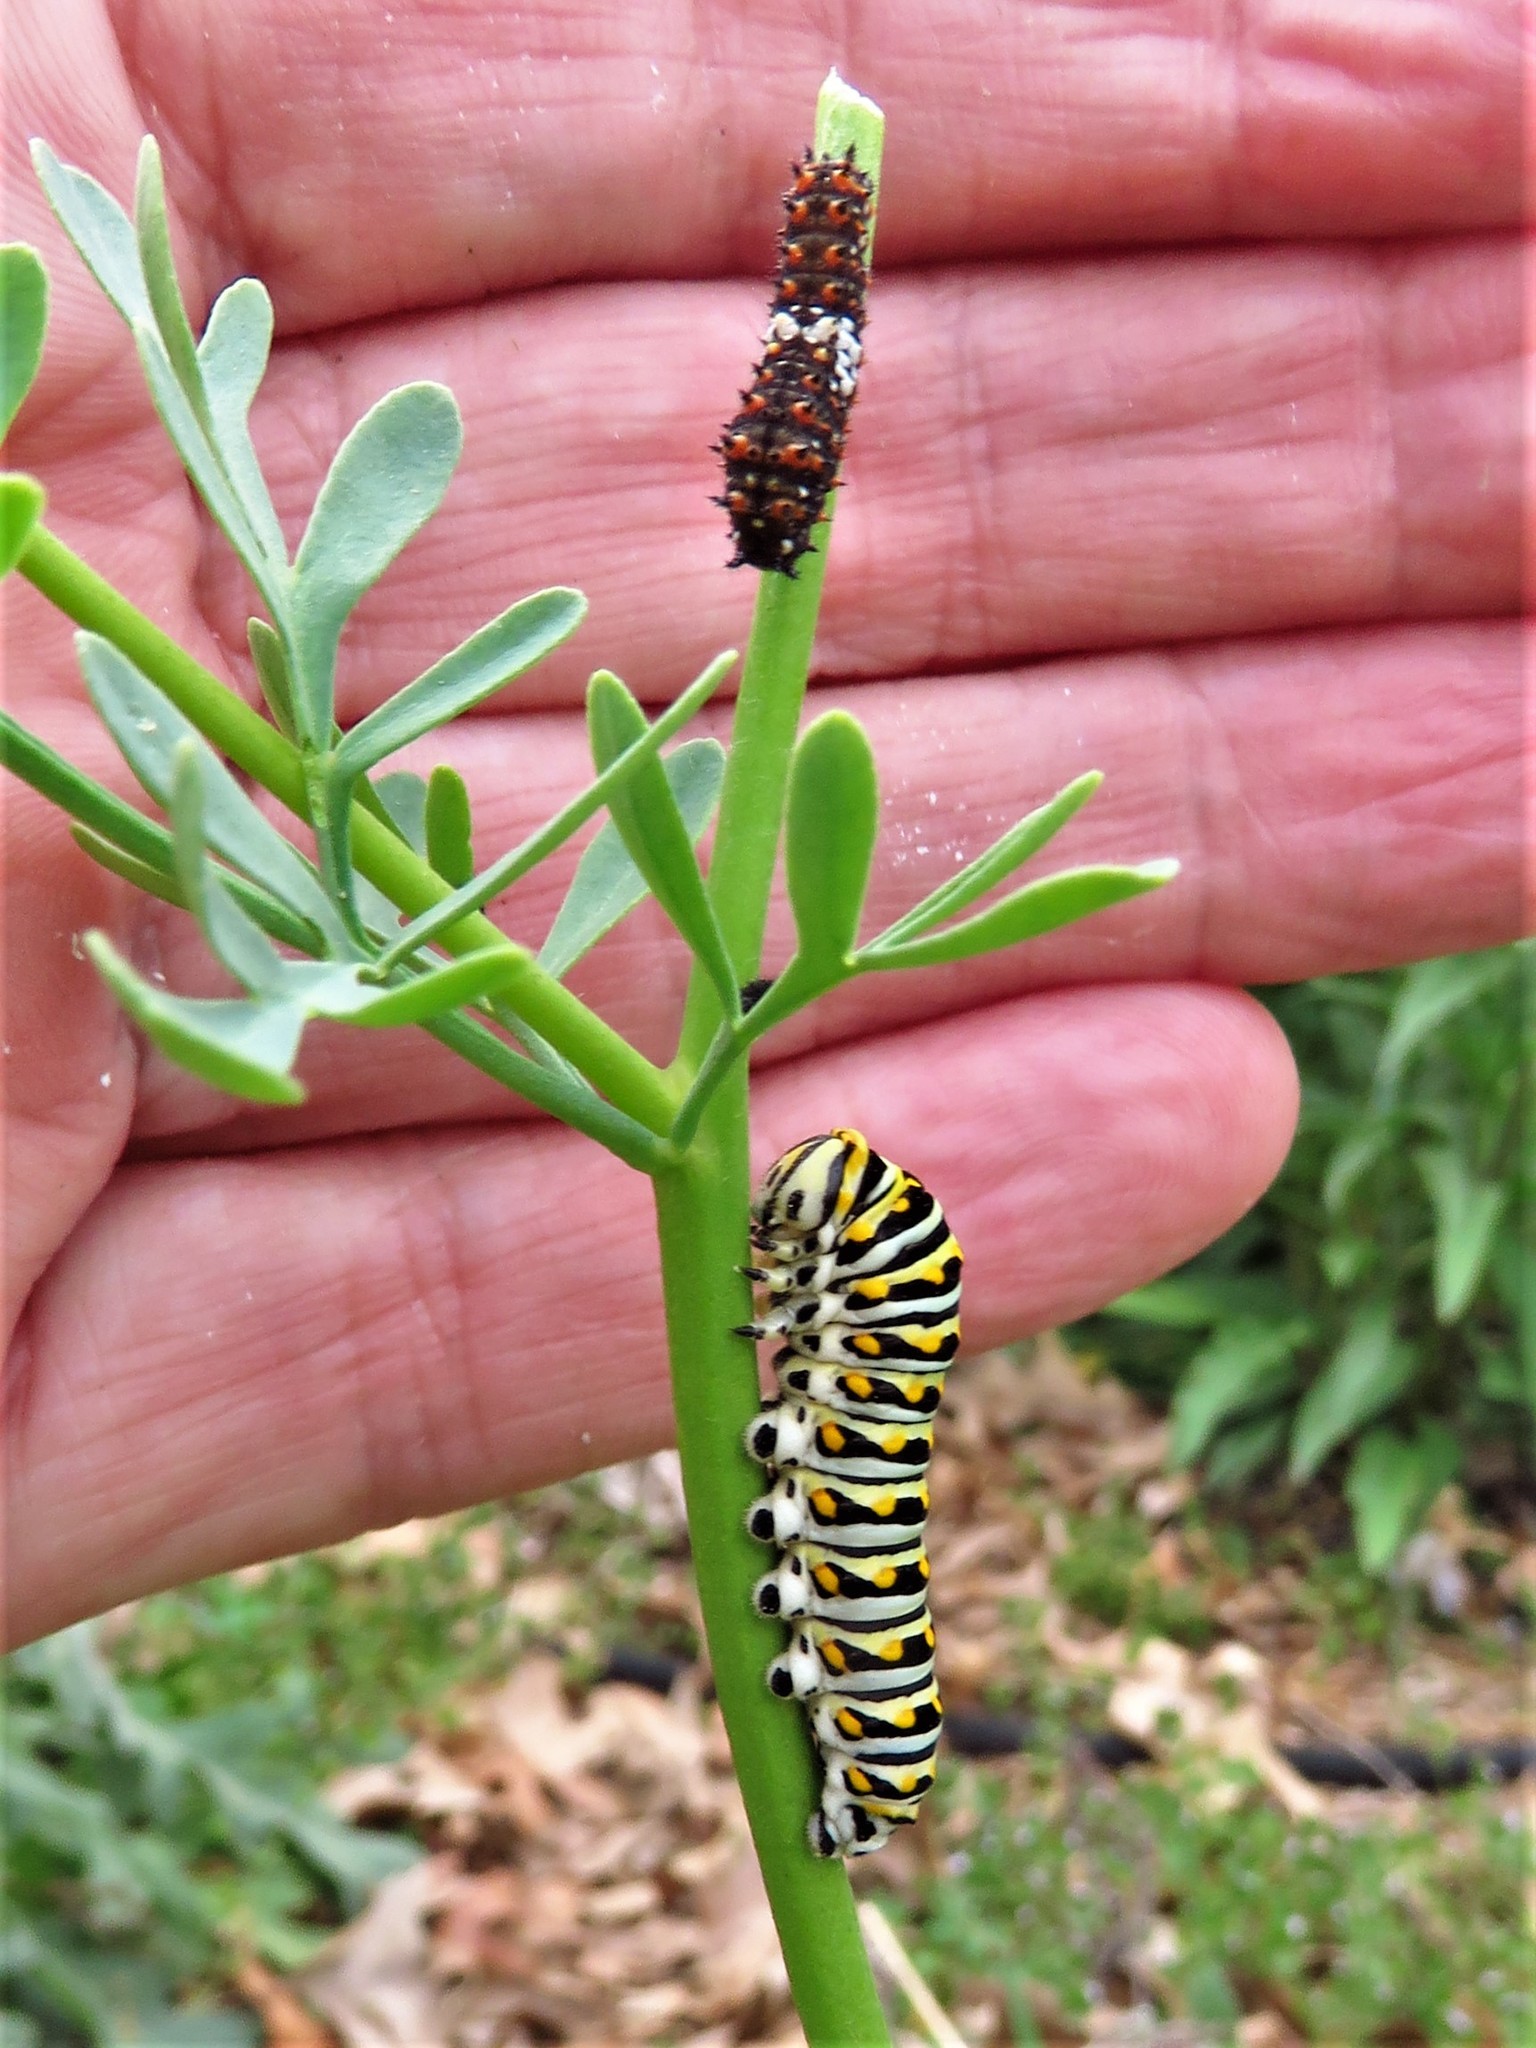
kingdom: Animalia
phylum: Arthropoda
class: Insecta
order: Lepidoptera
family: Papilionidae
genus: Papilio
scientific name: Papilio polyxenes
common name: Black swallowtail
